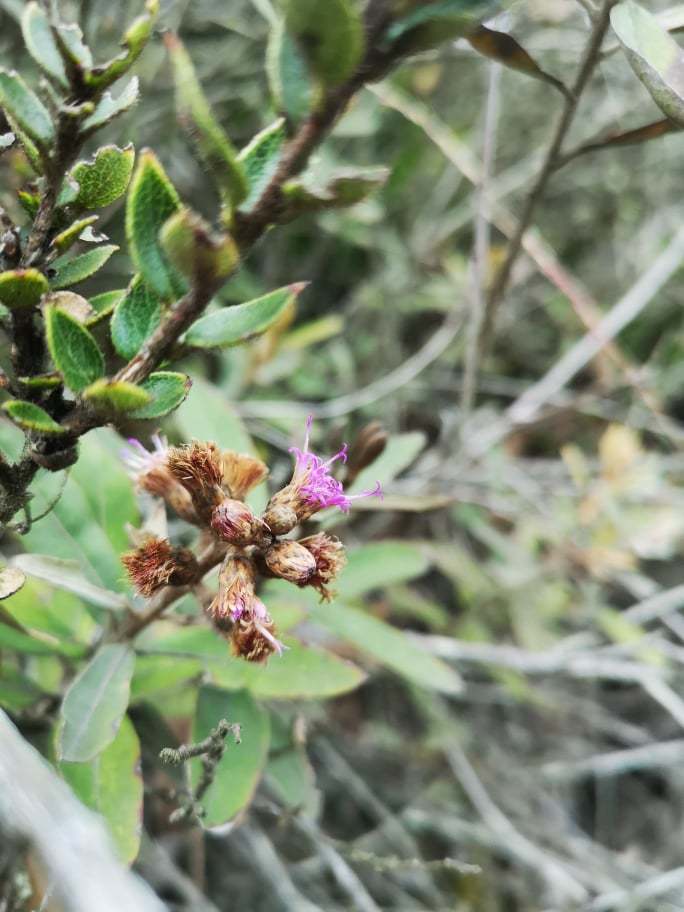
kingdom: Plantae
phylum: Tracheophyta
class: Magnoliopsida
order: Asterales
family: Asteraceae
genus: Lepidaploa
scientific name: Lepidaploa karstenii
